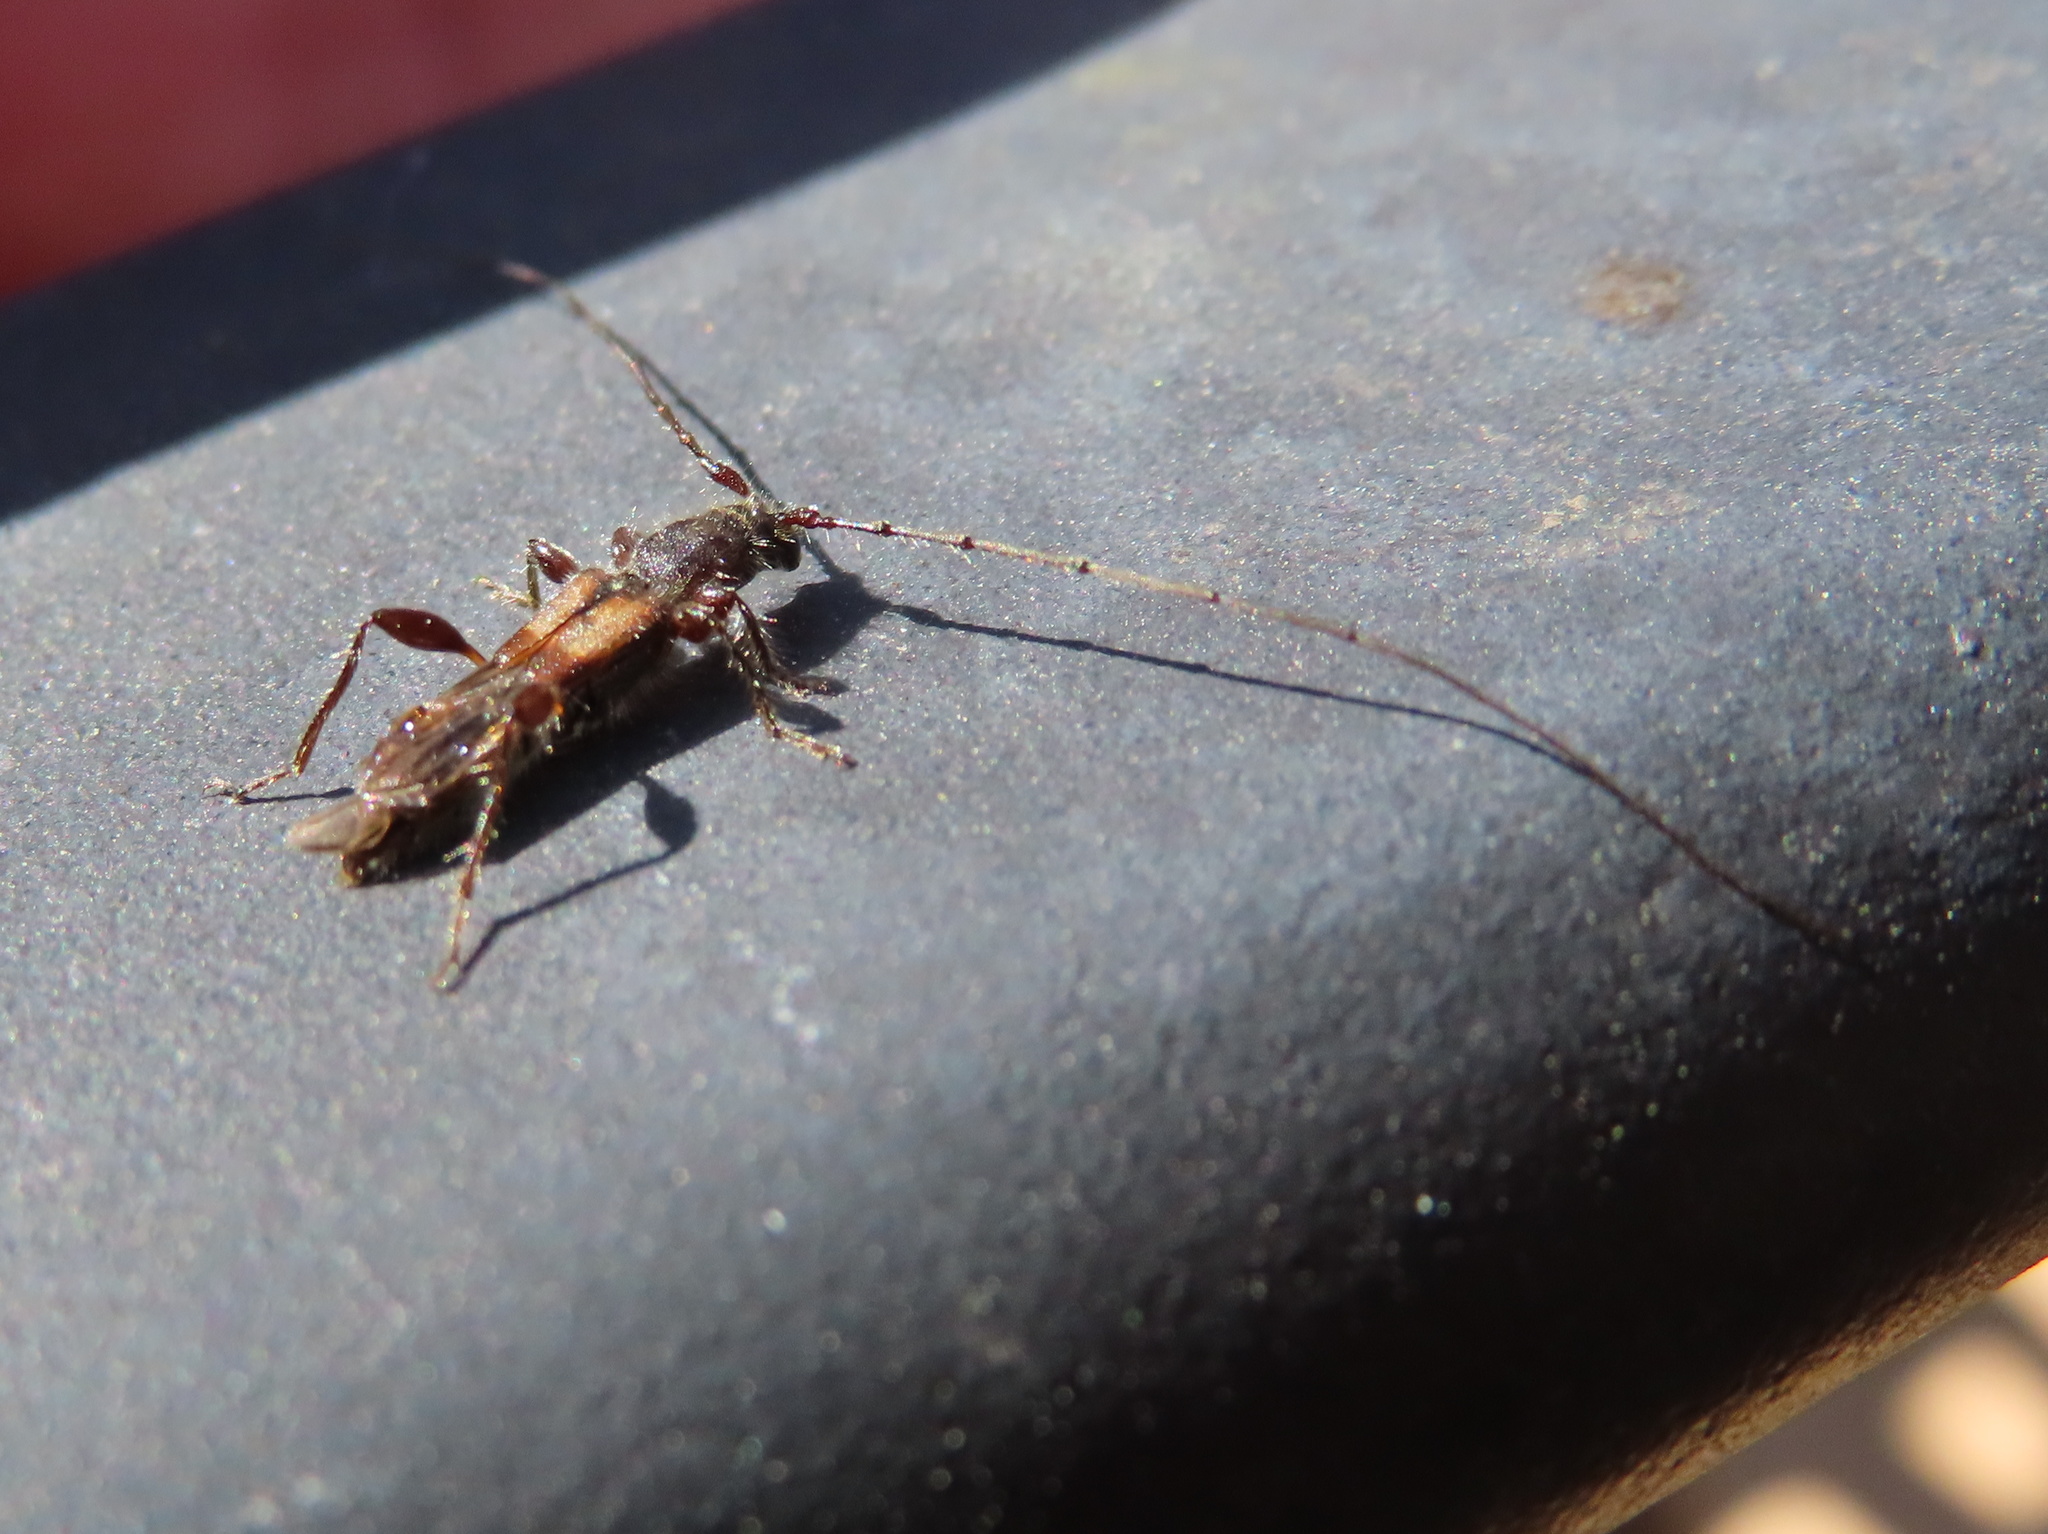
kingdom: Animalia
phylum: Arthropoda
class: Insecta
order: Coleoptera
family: Cerambycidae
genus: Molorchus
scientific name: Molorchus bimaculatus
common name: Bimaculate longhorn beetle
